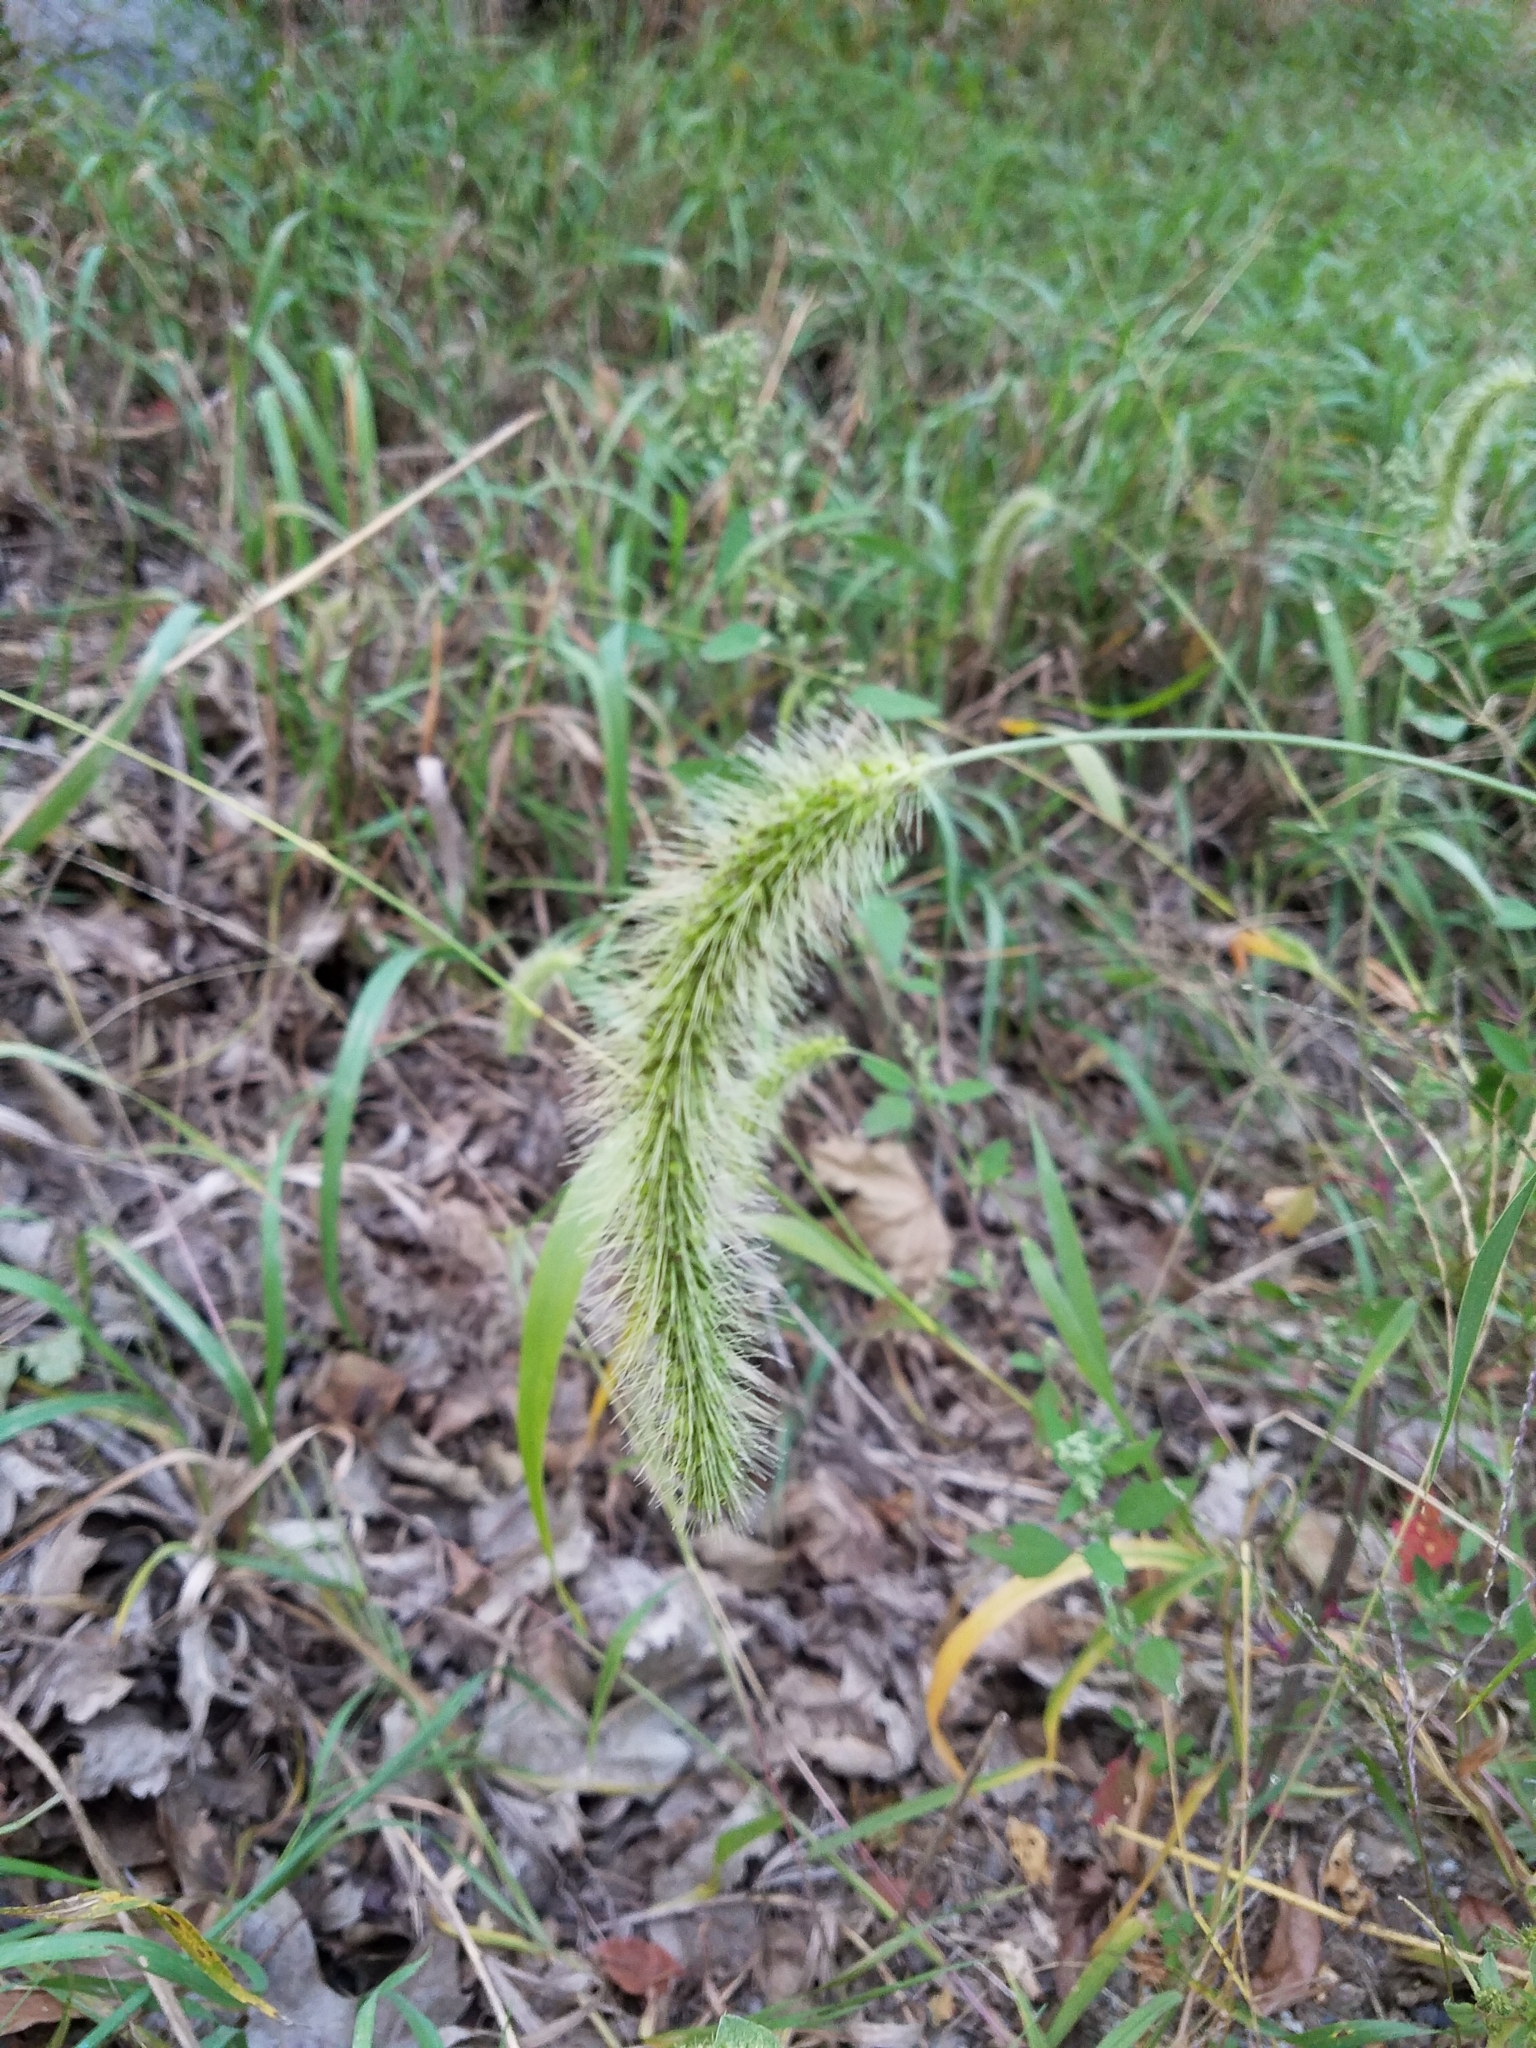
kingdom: Plantae
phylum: Tracheophyta
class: Liliopsida
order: Poales
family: Poaceae
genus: Setaria
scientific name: Setaria faberi
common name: Nodding bristle-grass
